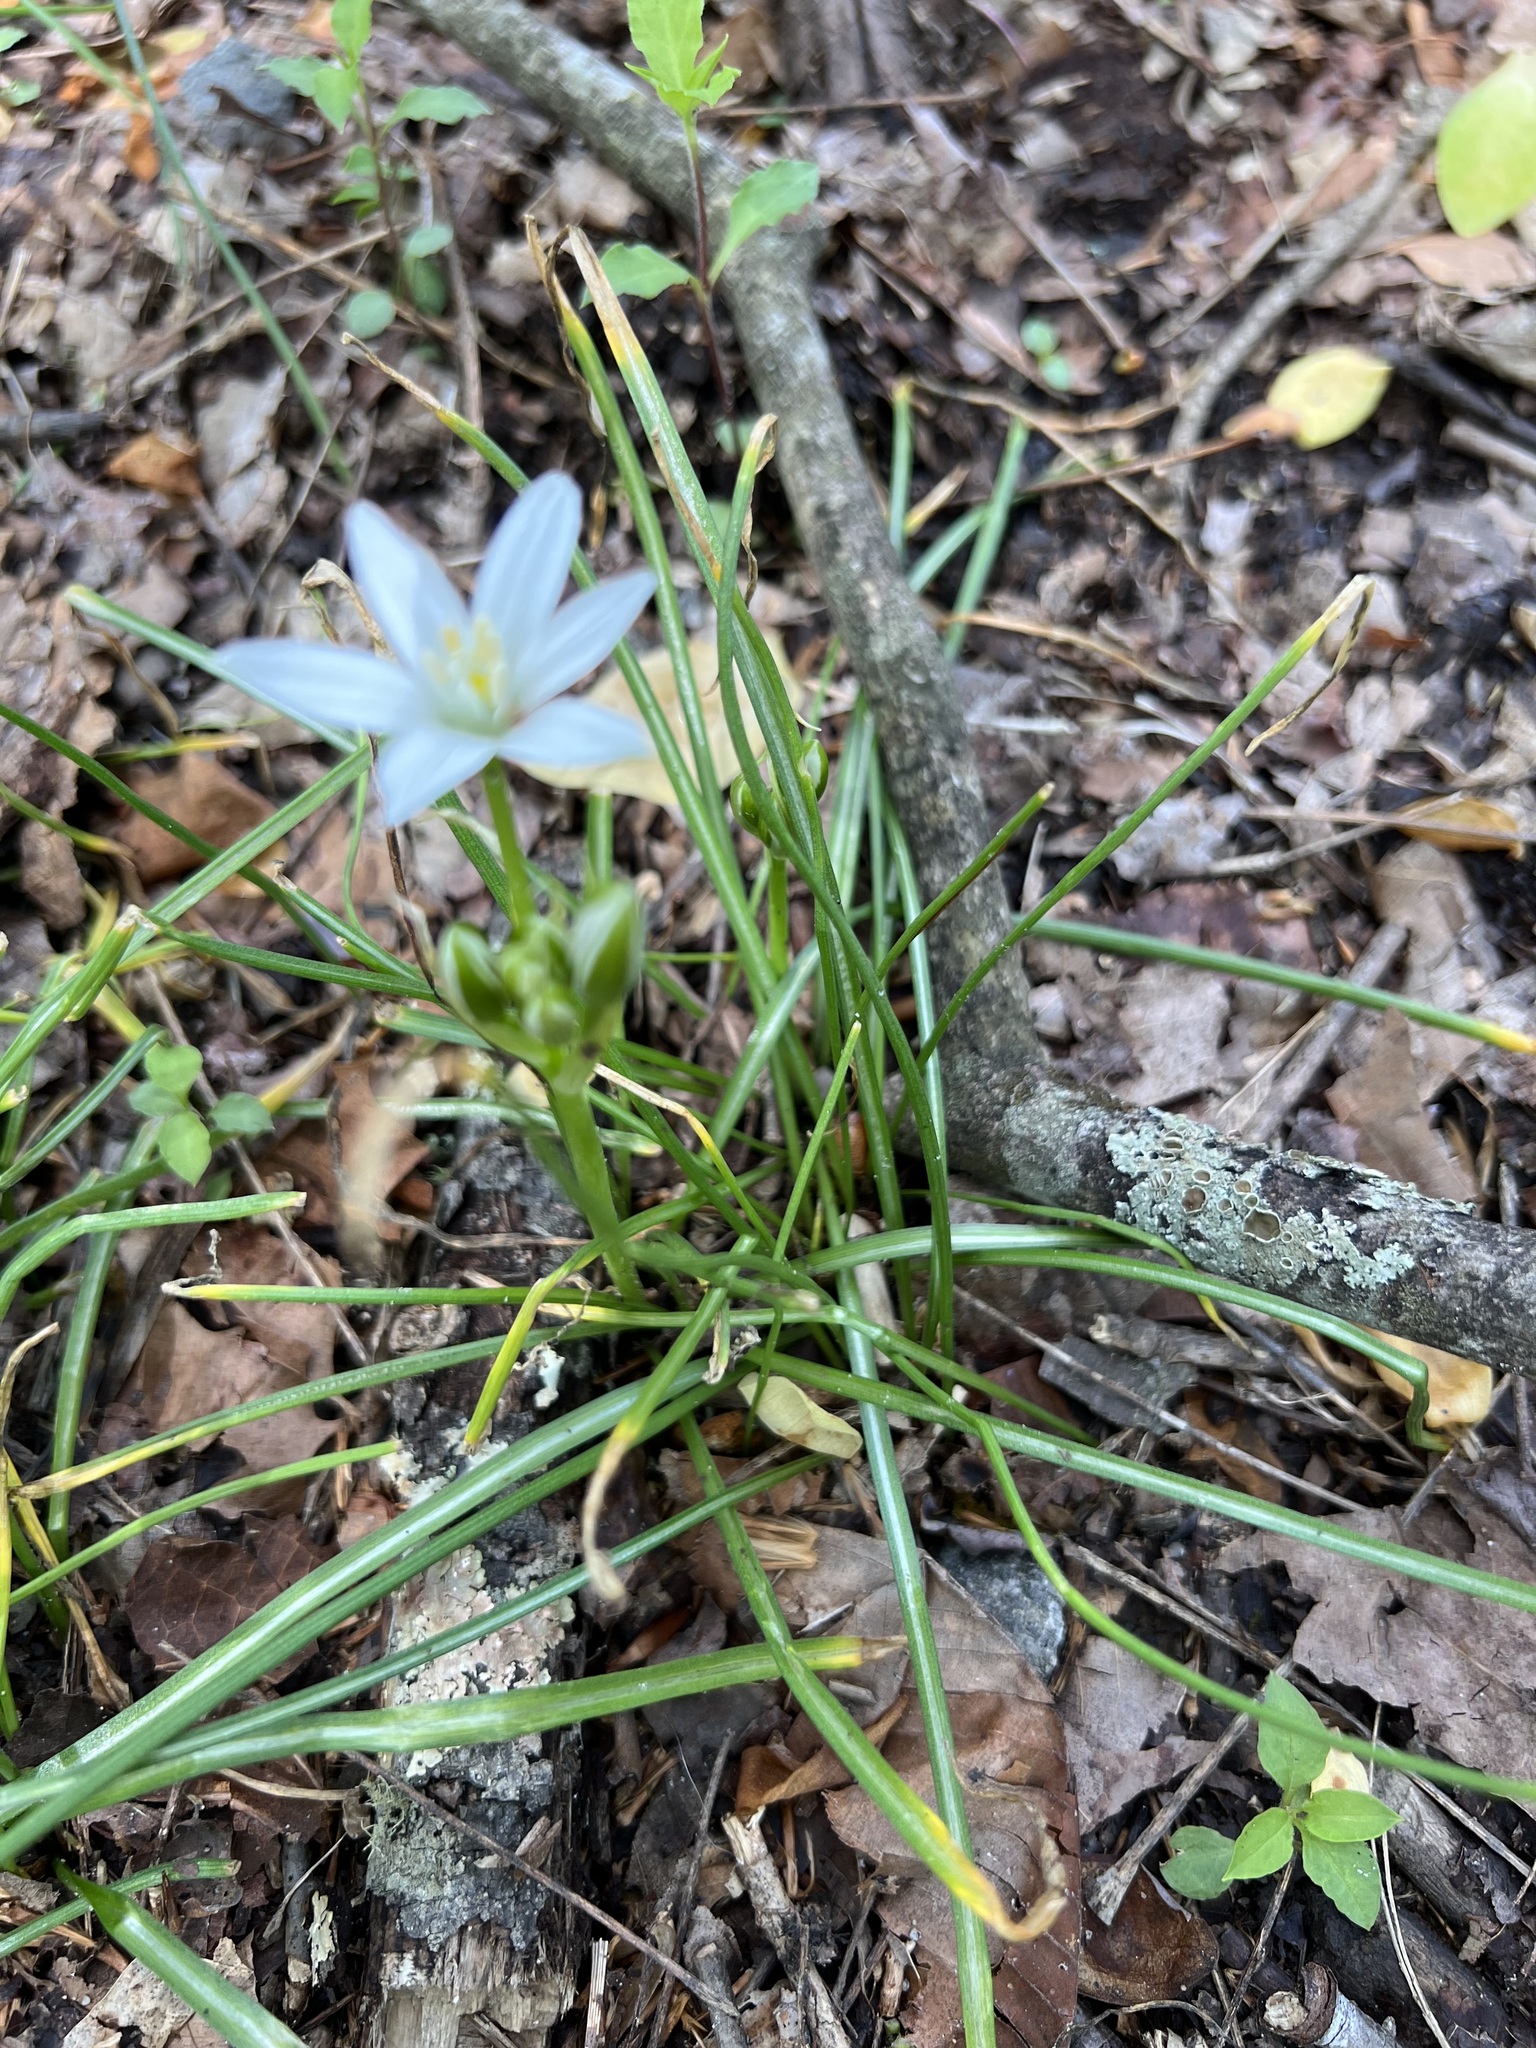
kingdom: Plantae
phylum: Tracheophyta
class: Liliopsida
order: Asparagales
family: Asparagaceae
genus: Ornithogalum
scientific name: Ornithogalum umbellatum
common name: Garden star-of-bethlehem
